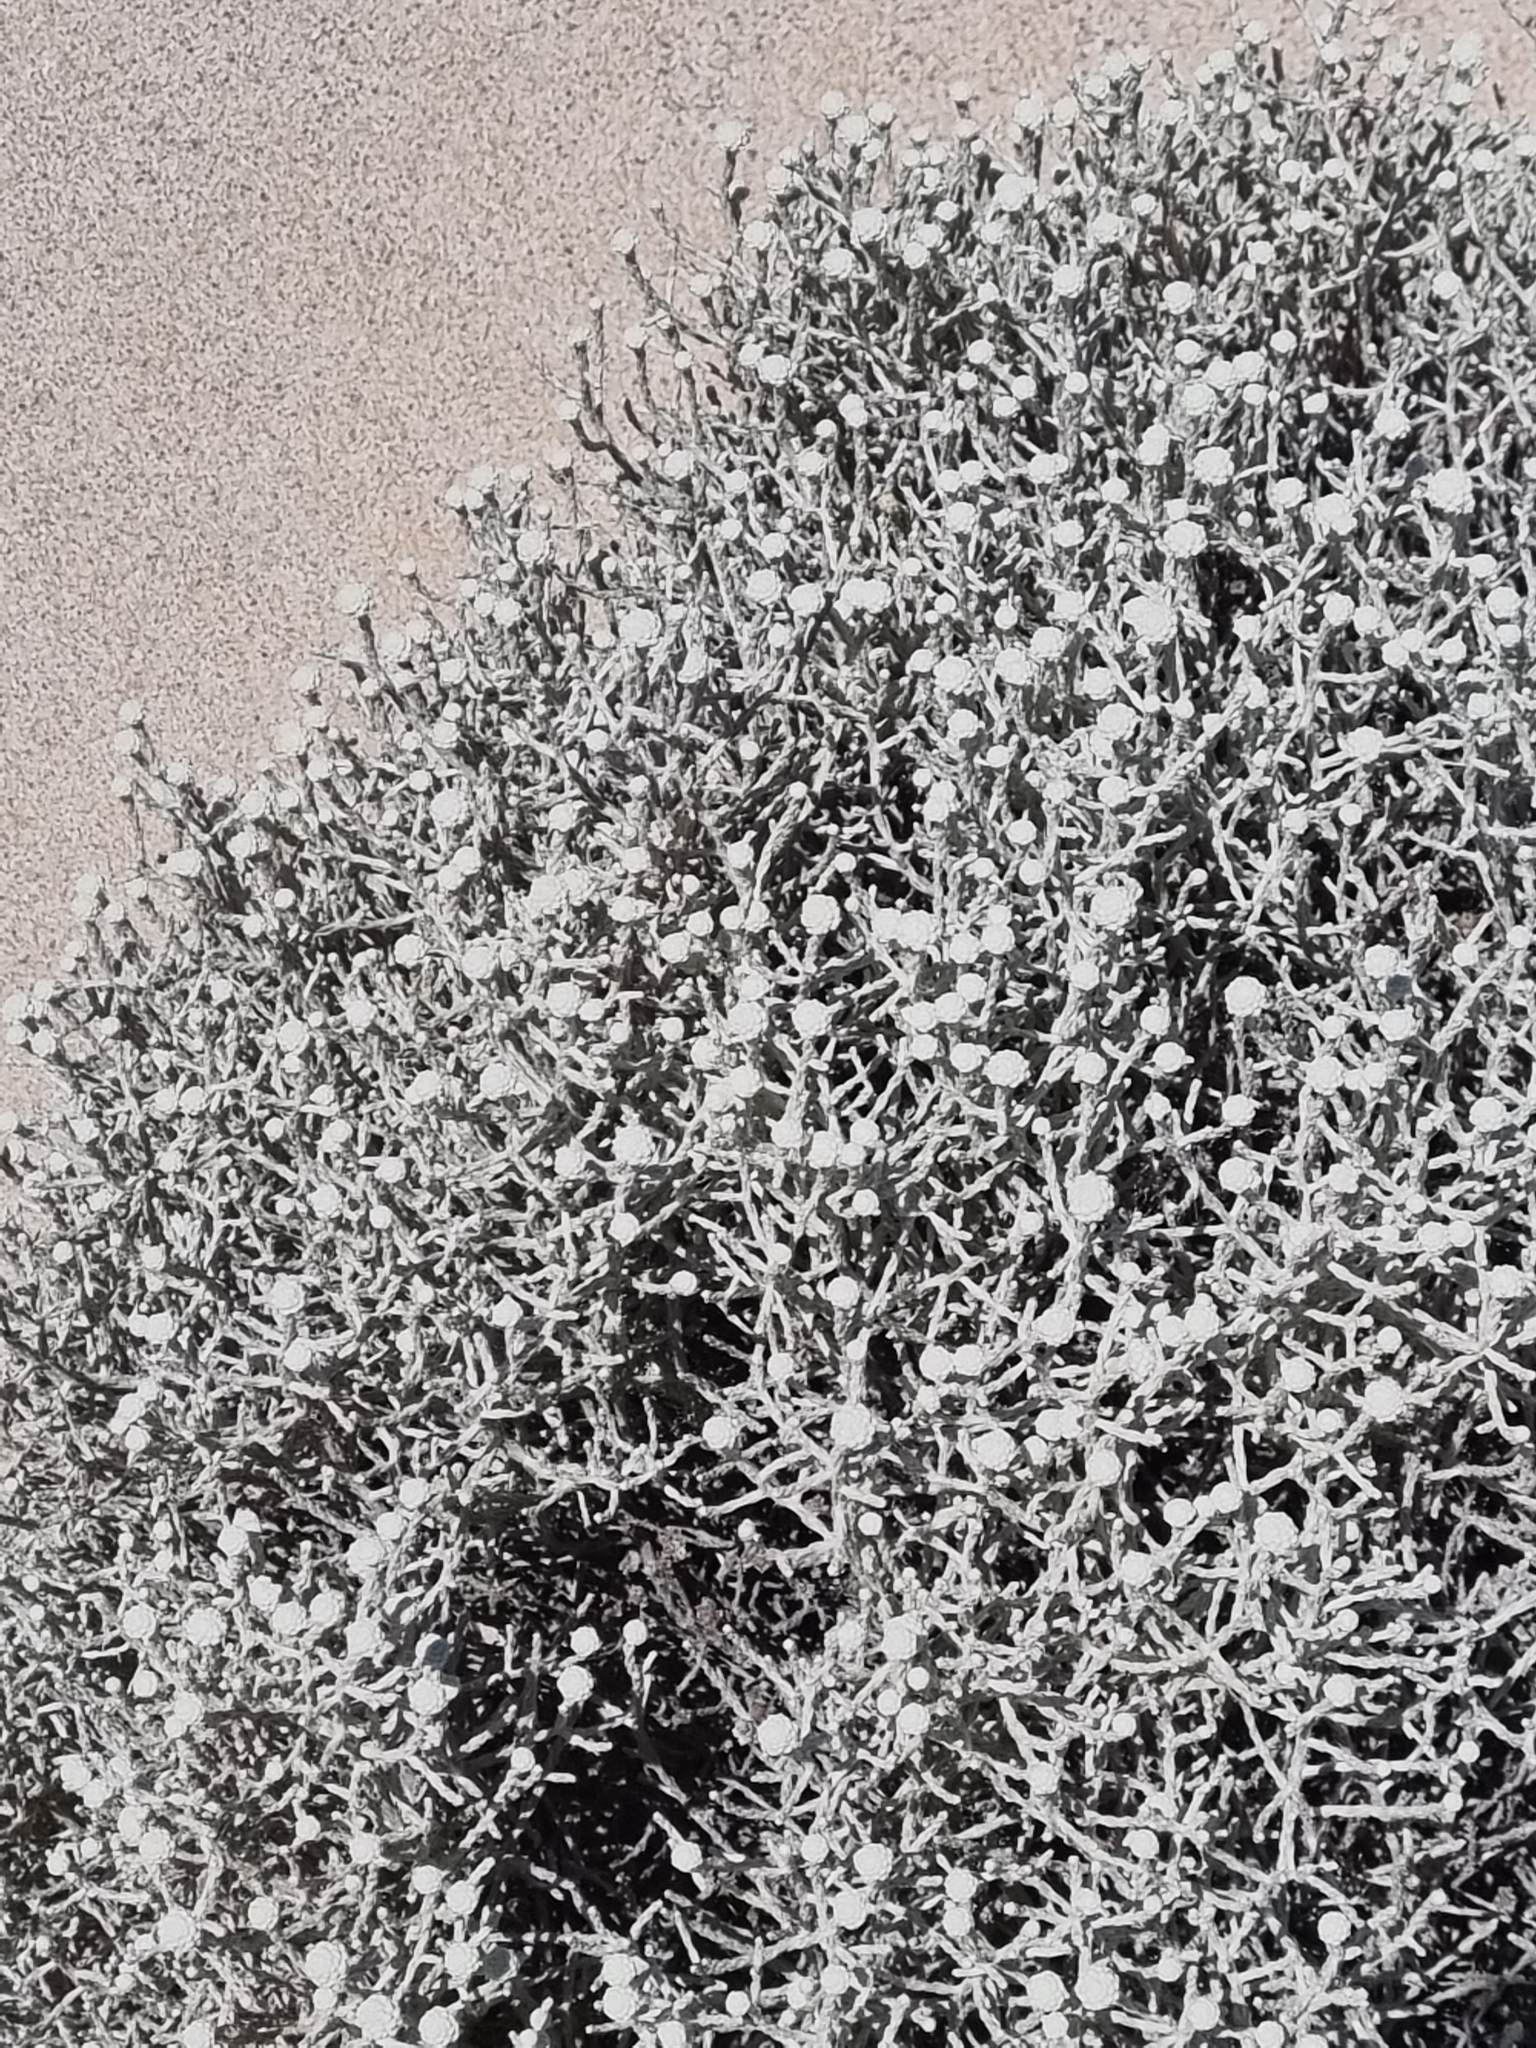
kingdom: Plantae
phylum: Tracheophyta
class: Magnoliopsida
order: Asterales
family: Asteraceae
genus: Calocephalus
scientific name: Calocephalus brownii
